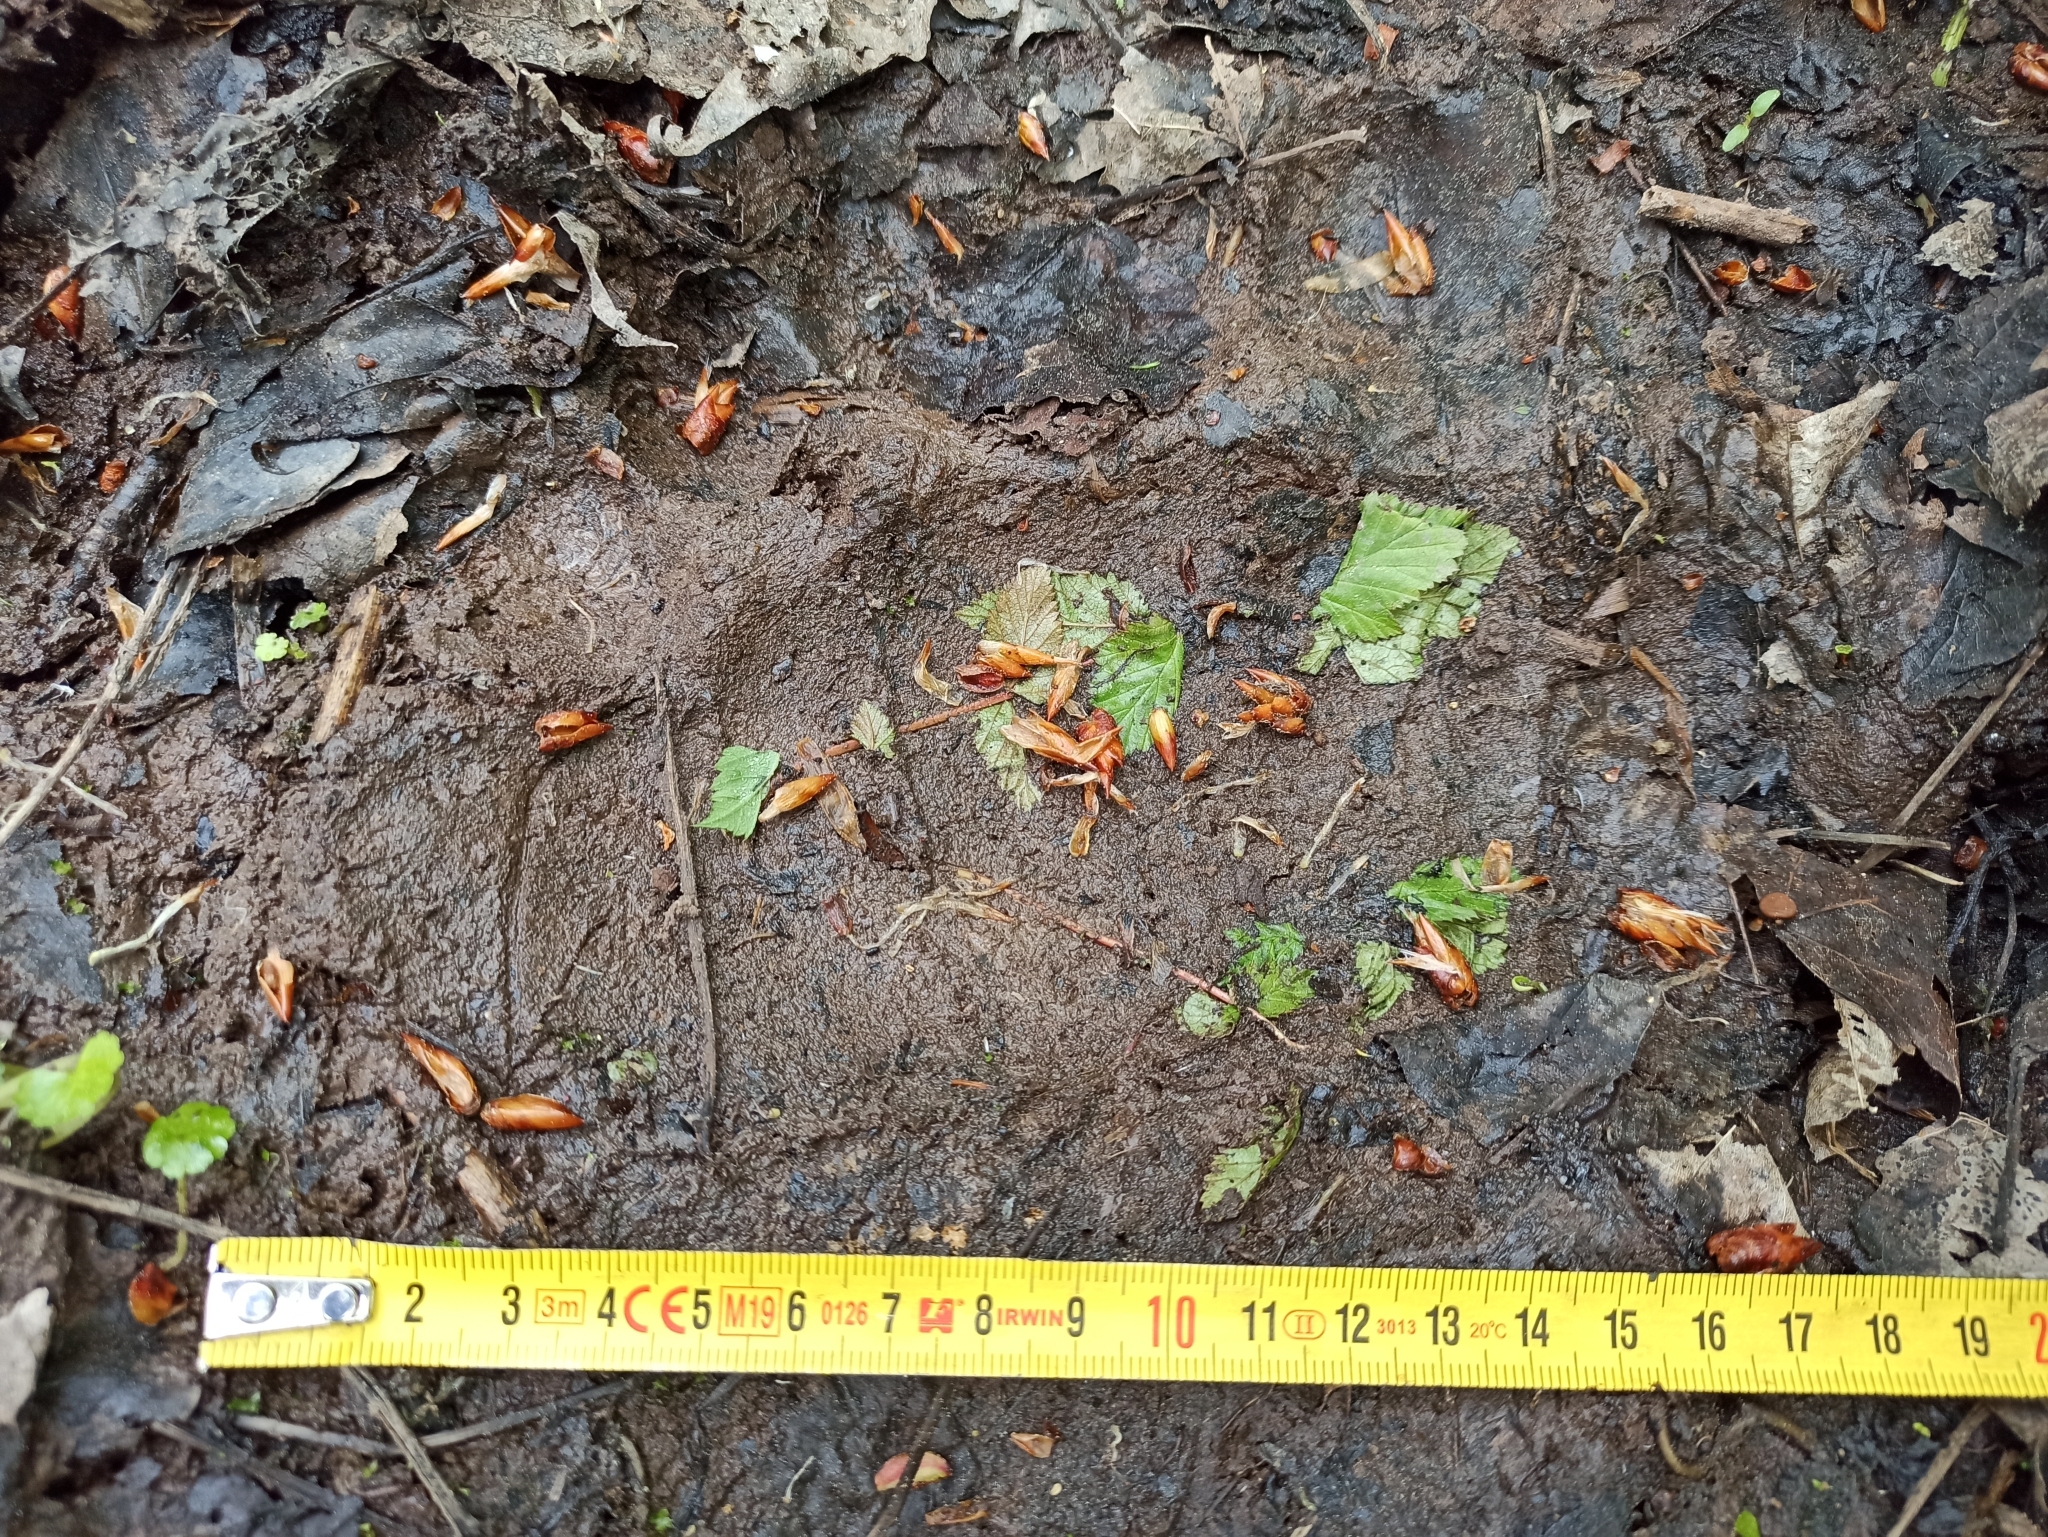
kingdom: Animalia
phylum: Chordata
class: Mammalia
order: Carnivora
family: Ursidae
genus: Ursus
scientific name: Ursus arctos
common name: Brown bear
